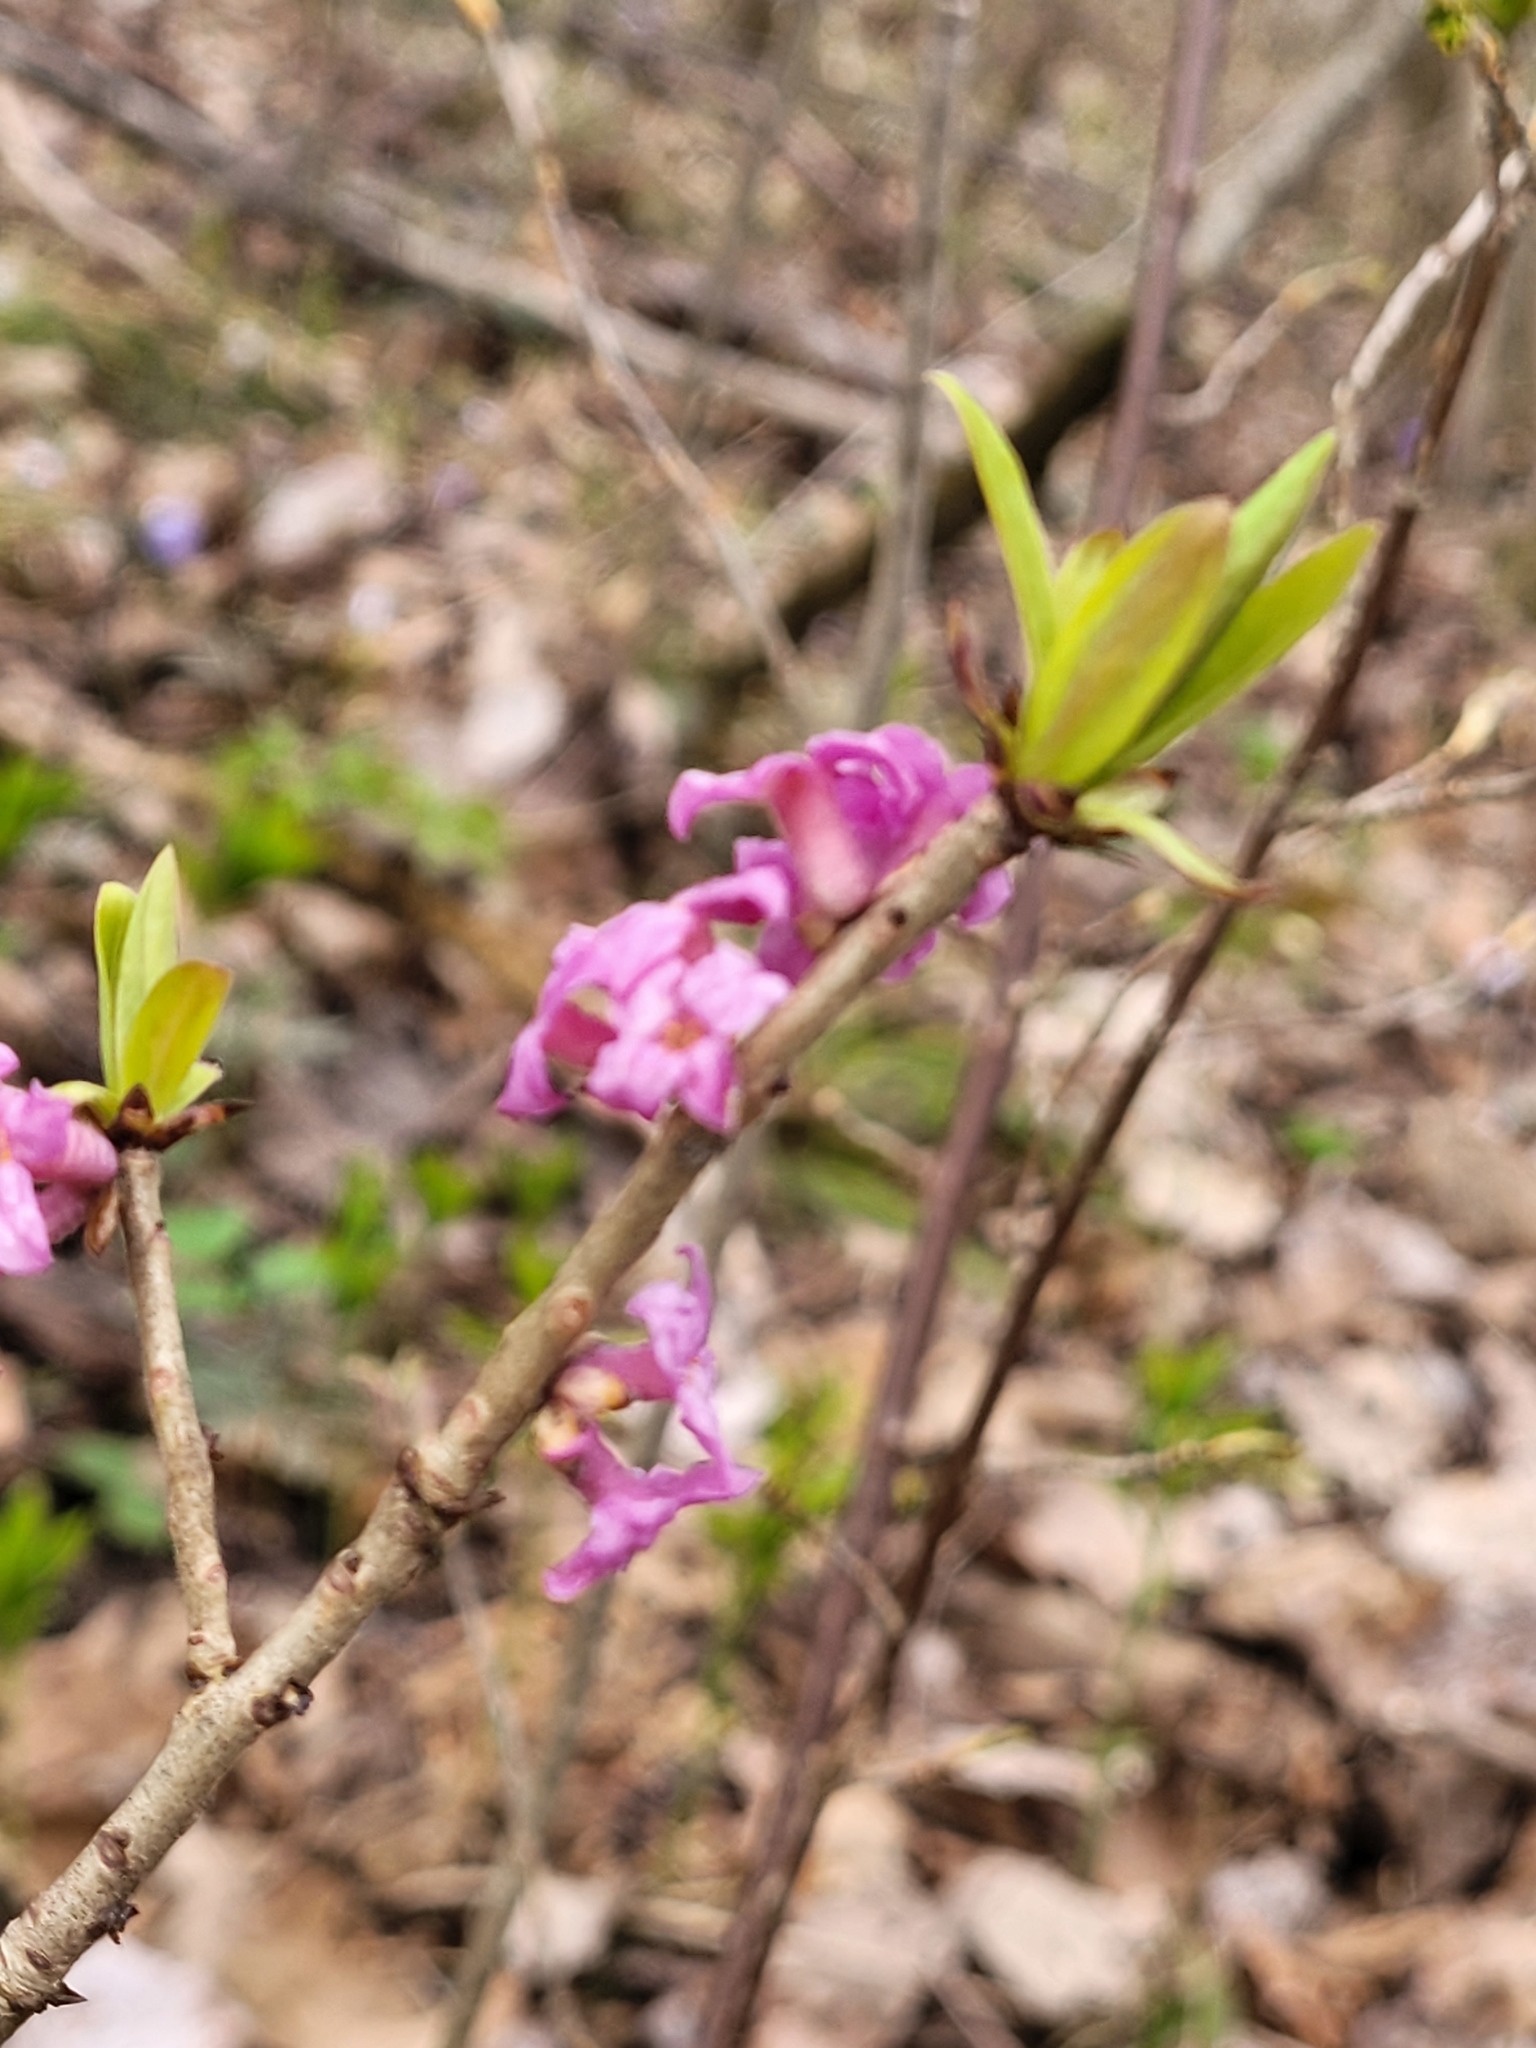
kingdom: Plantae
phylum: Tracheophyta
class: Magnoliopsida
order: Malvales
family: Thymelaeaceae
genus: Daphne
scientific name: Daphne mezereum
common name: Mezereon
